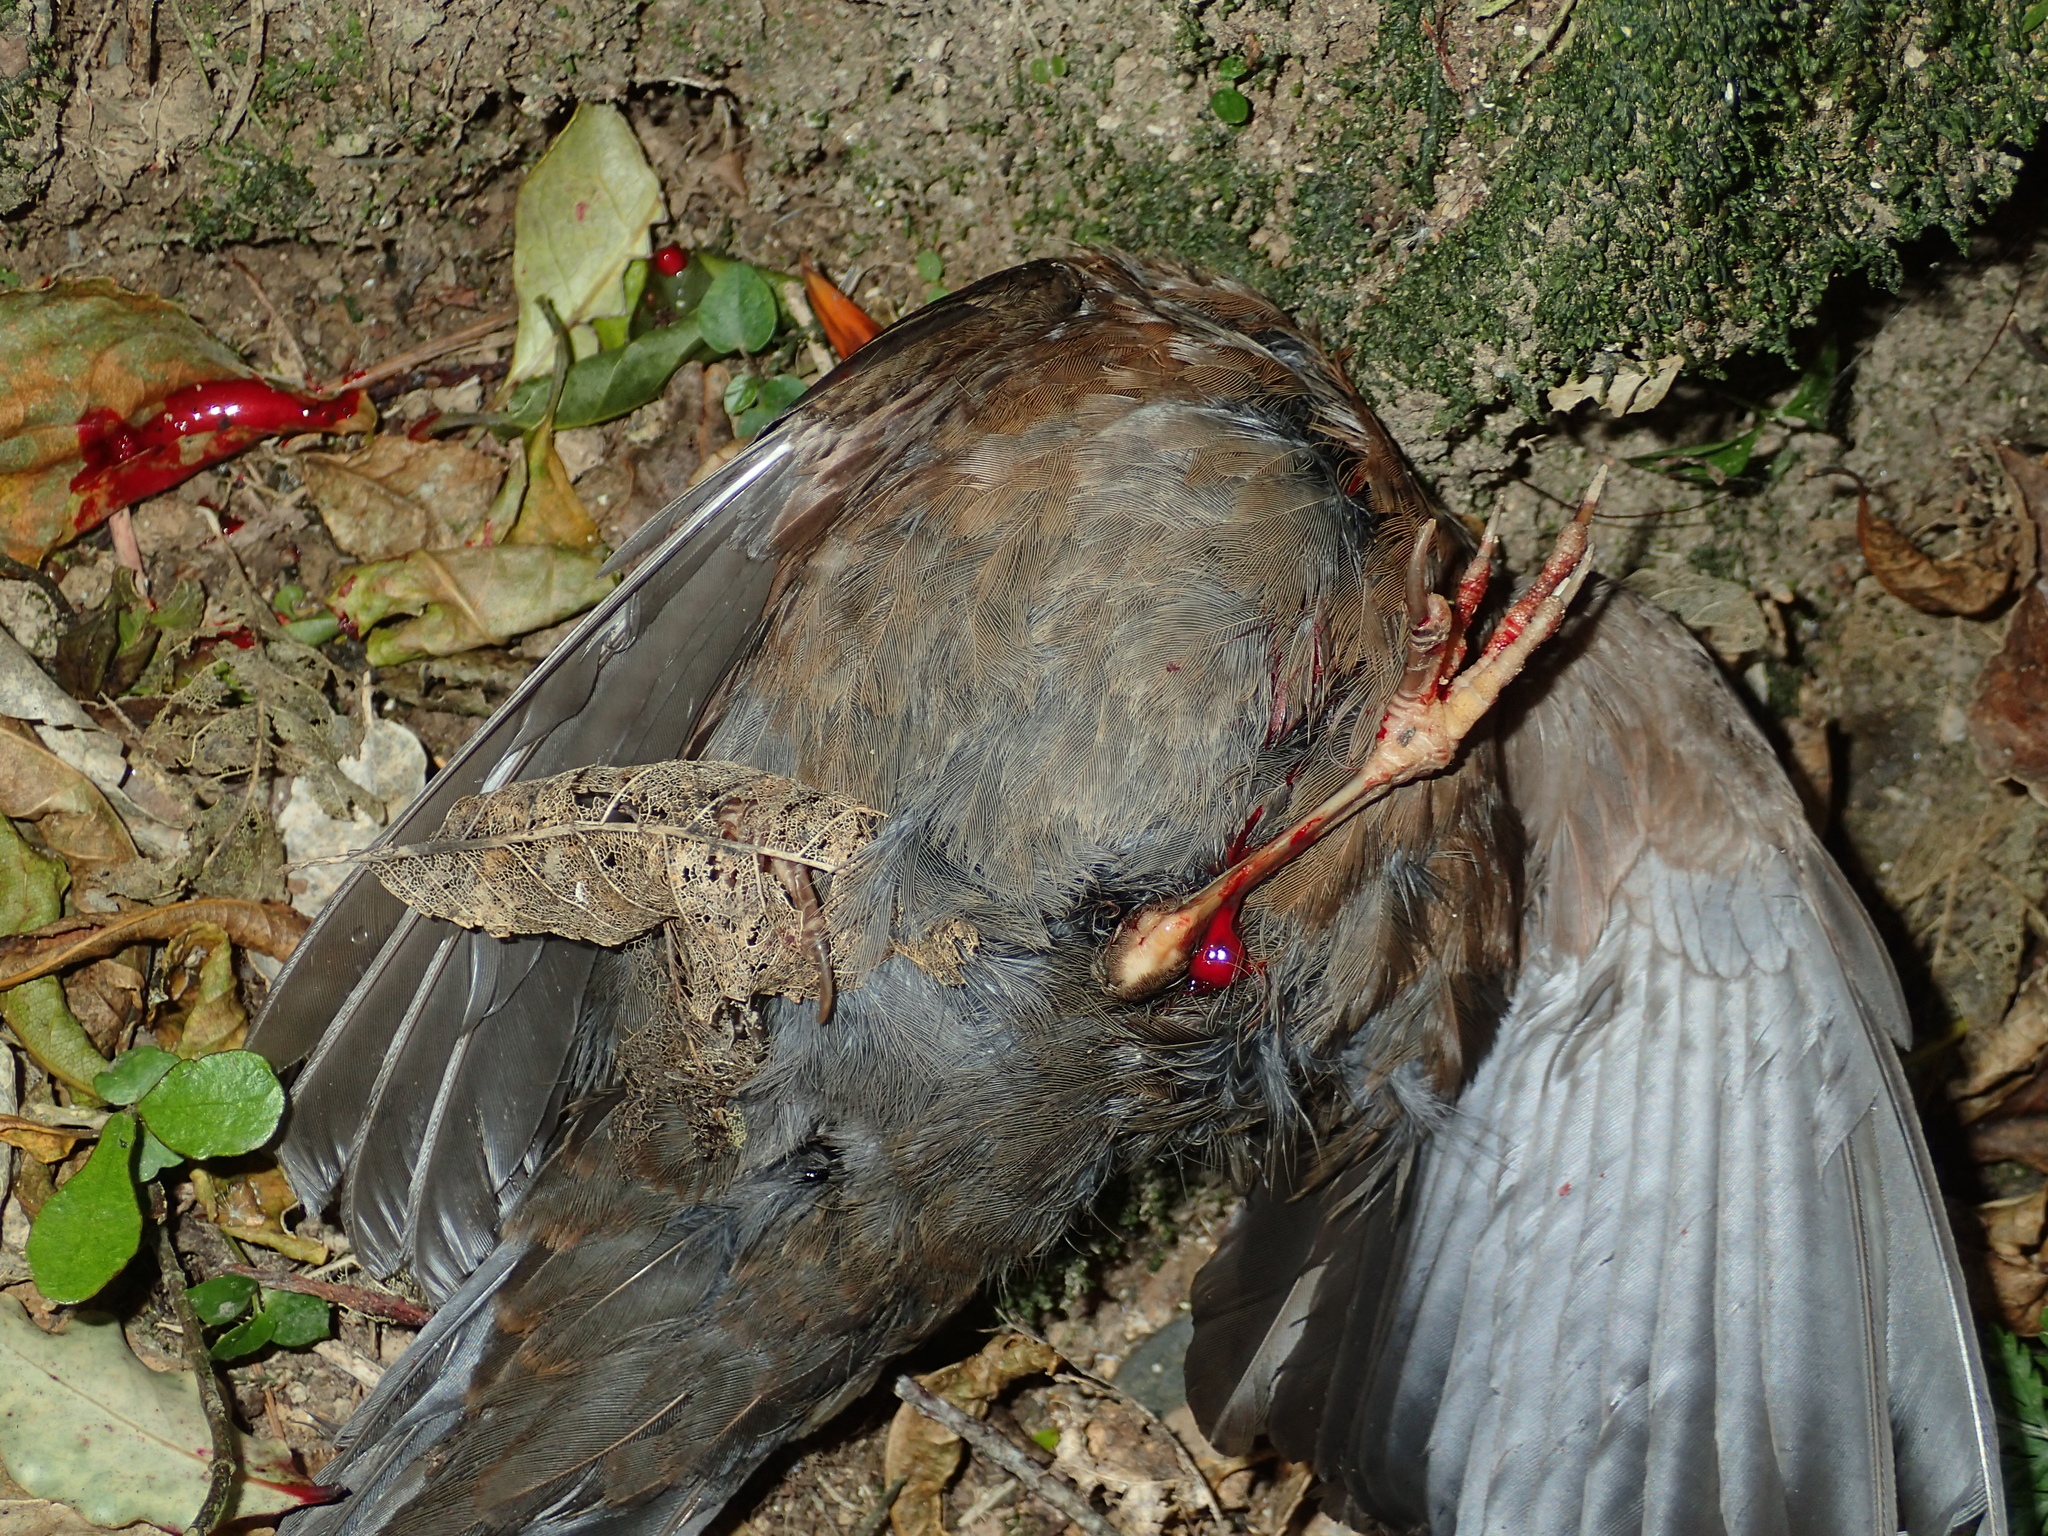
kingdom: Animalia
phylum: Chordata
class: Aves
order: Passeriformes
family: Turdidae
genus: Turdus
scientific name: Turdus merula
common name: Common blackbird
